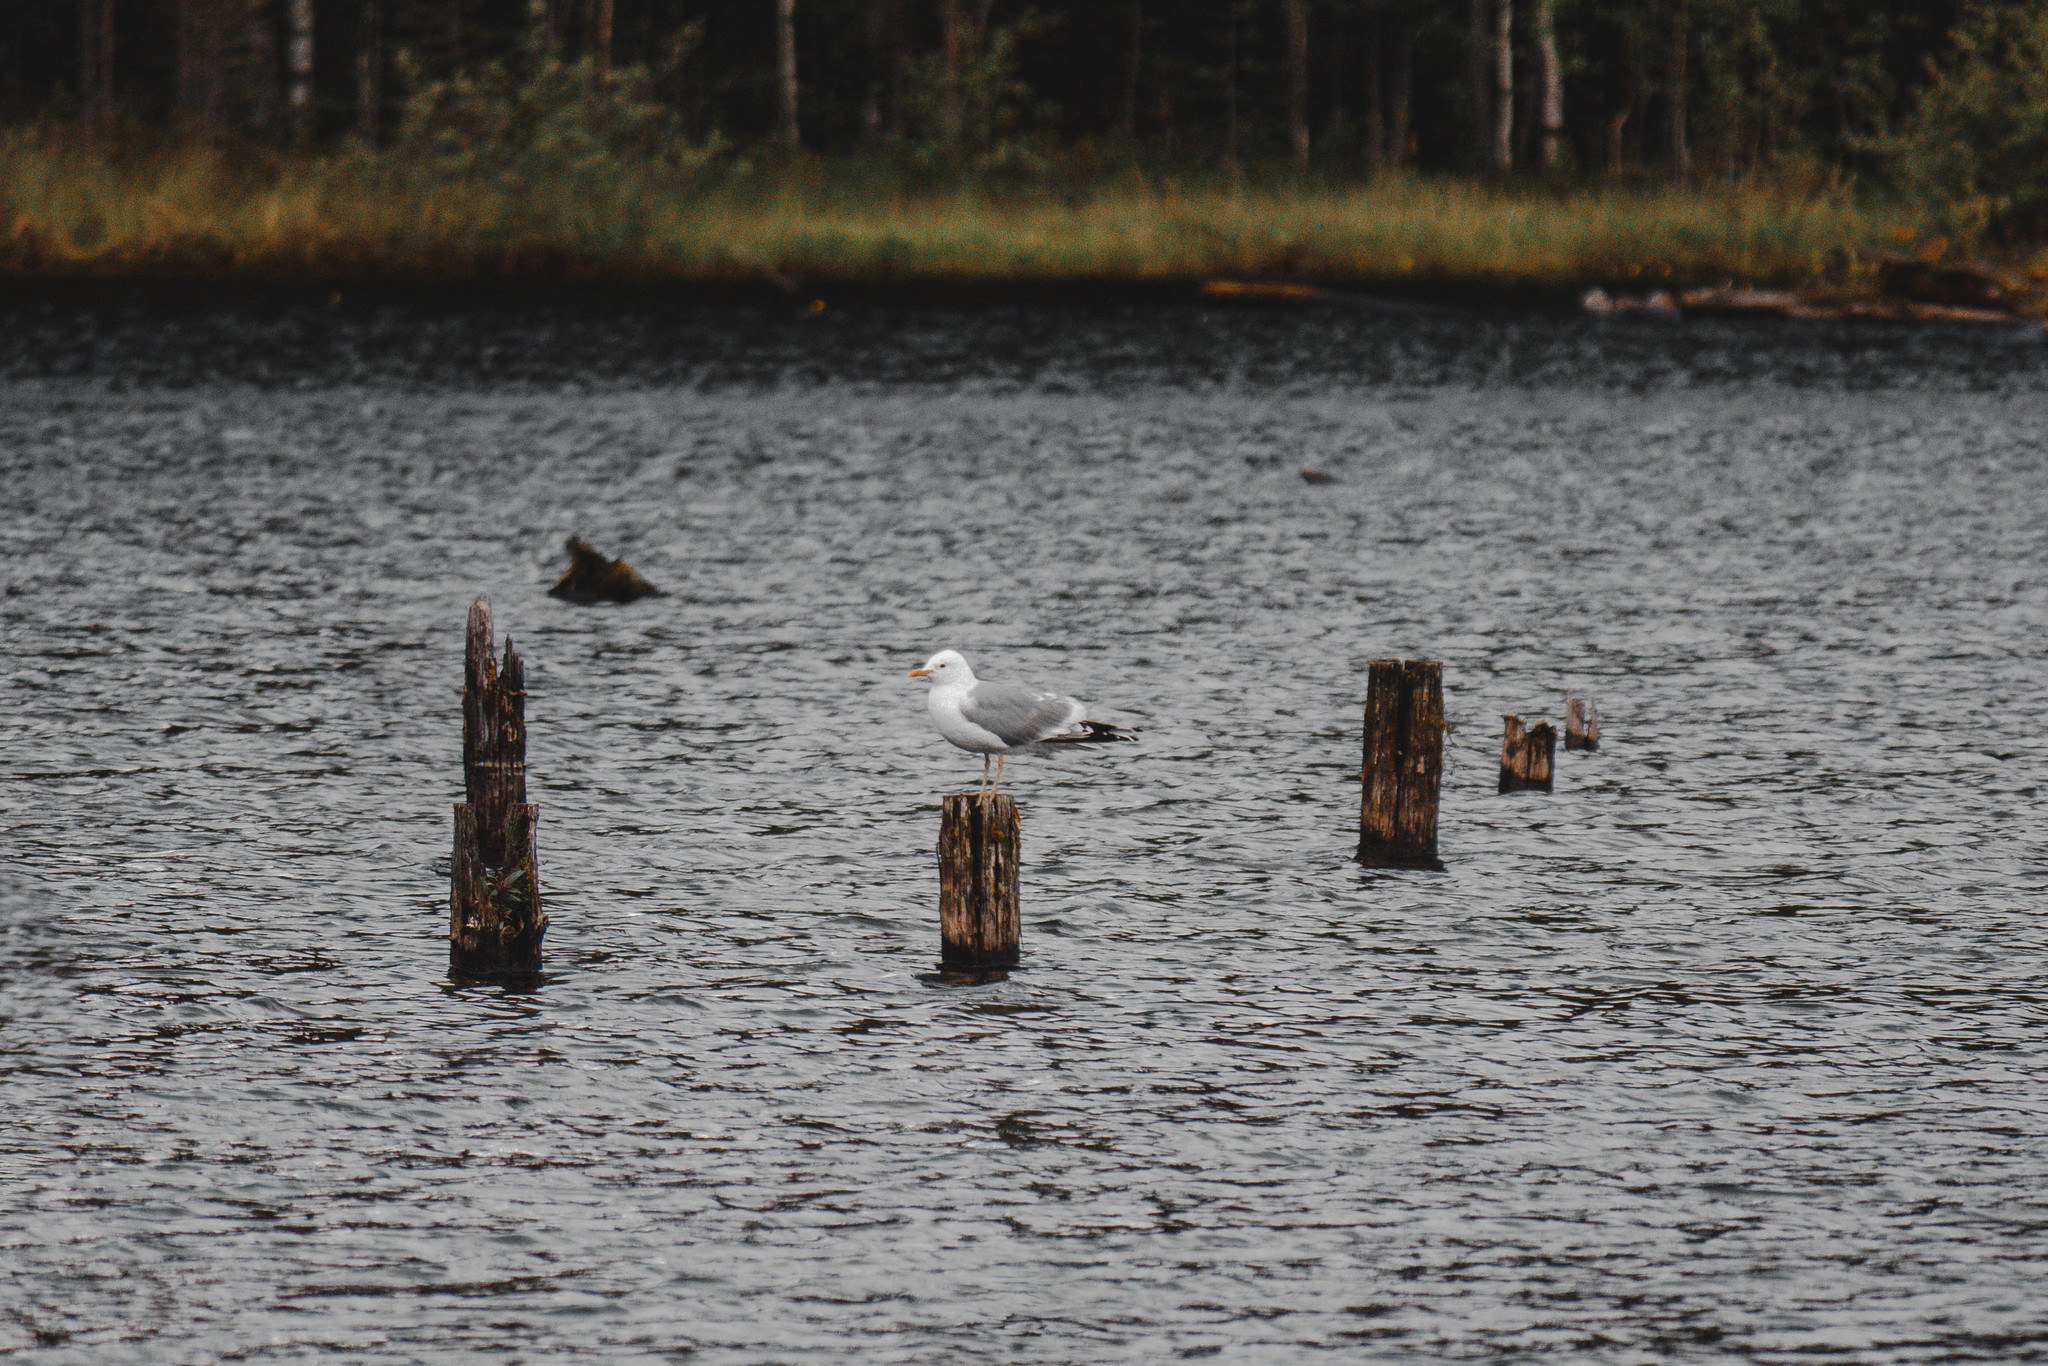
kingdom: Animalia
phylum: Chordata
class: Aves
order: Charadriiformes
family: Laridae
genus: Larus
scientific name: Larus argentatus
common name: Herring gull
